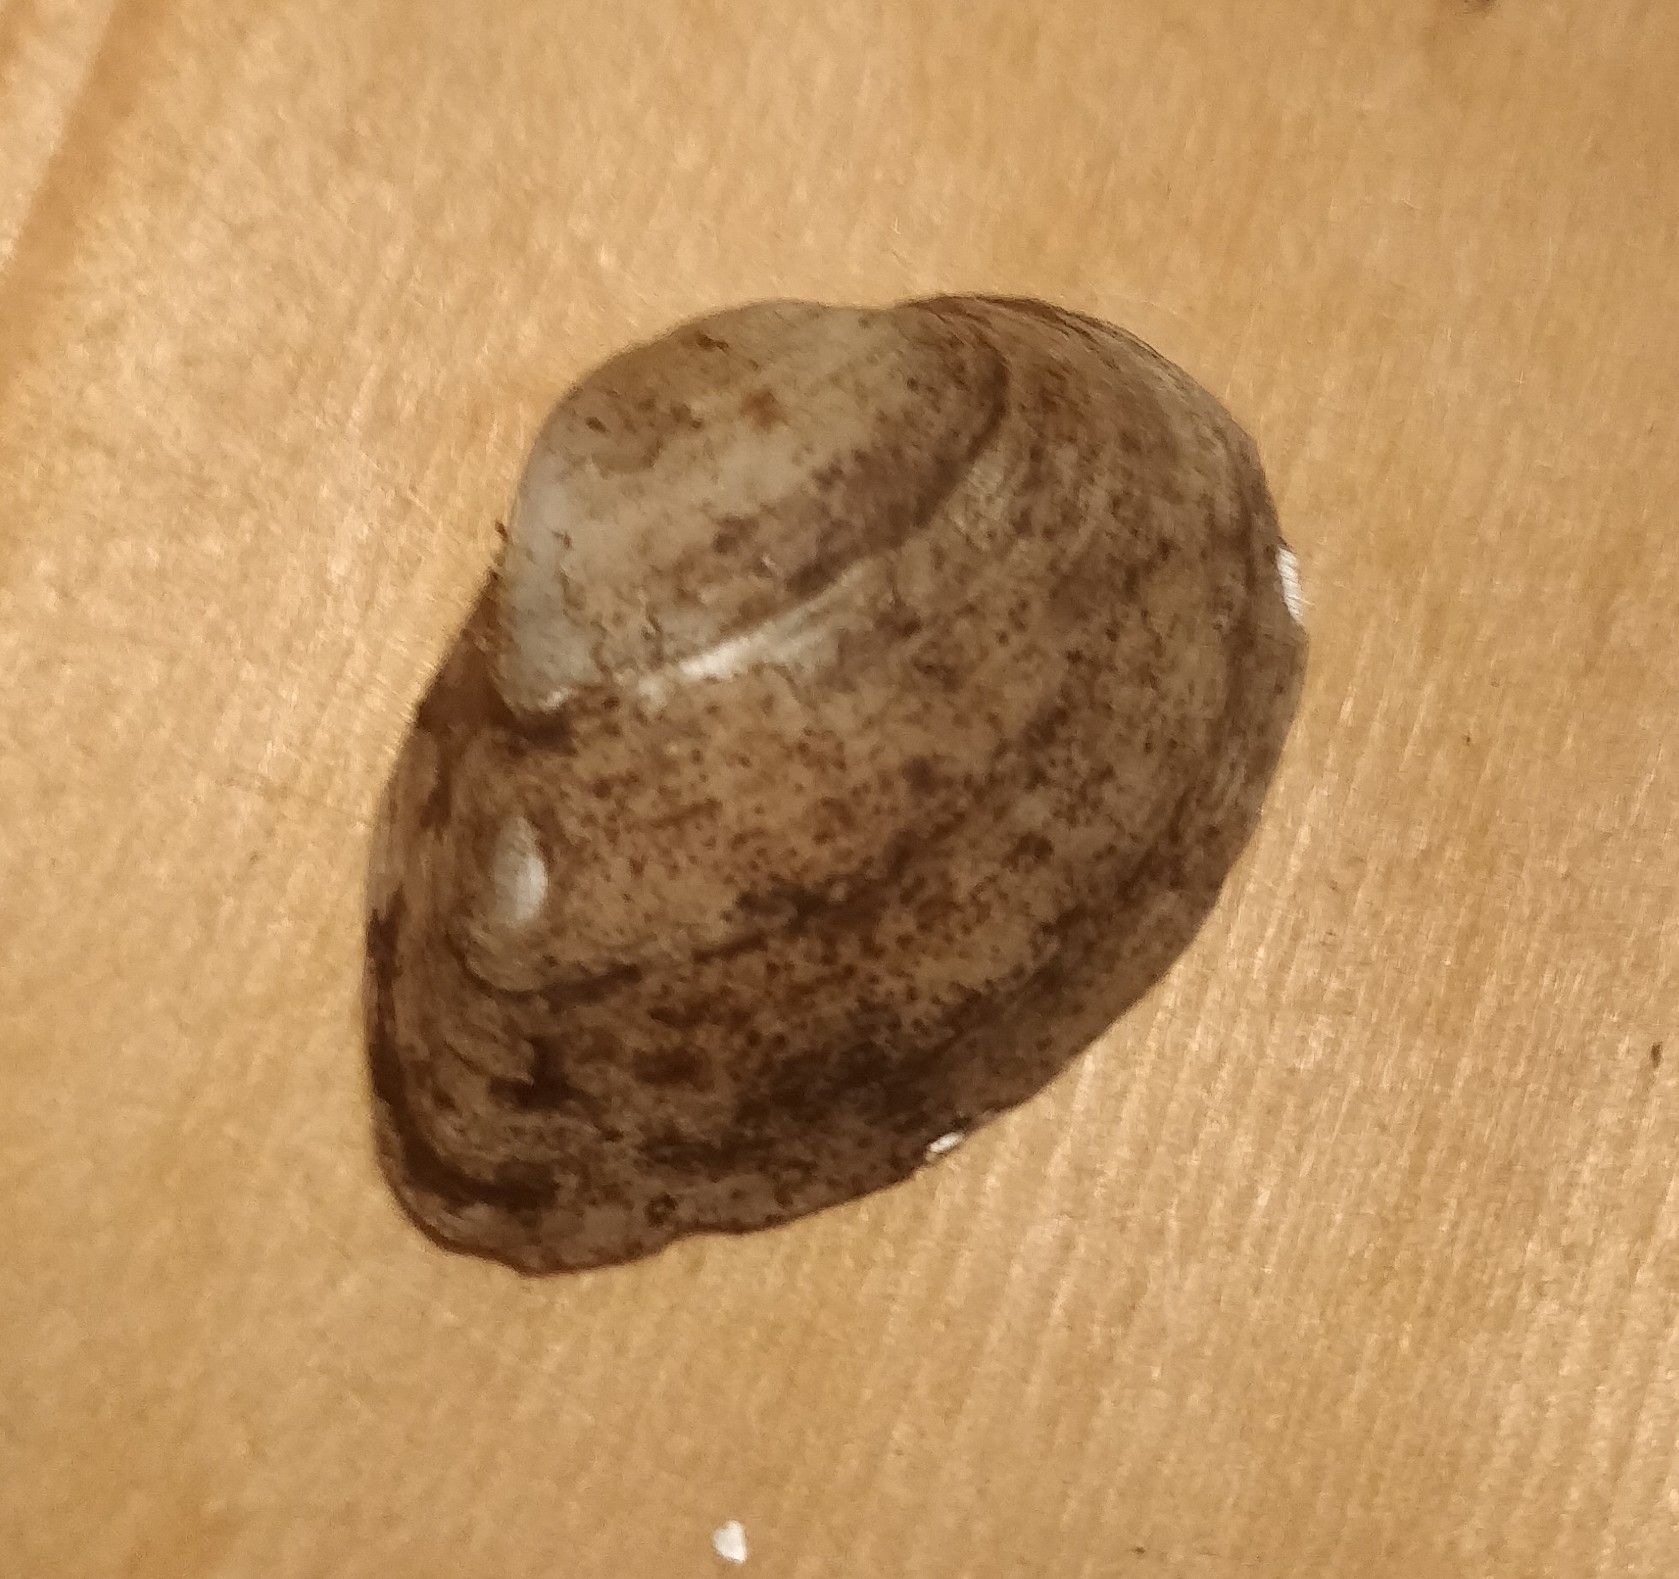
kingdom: Animalia
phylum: Mollusca
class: Bivalvia
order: Unionida
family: Unionidae
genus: Truncilla
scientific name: Truncilla truncata
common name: Deertoe
